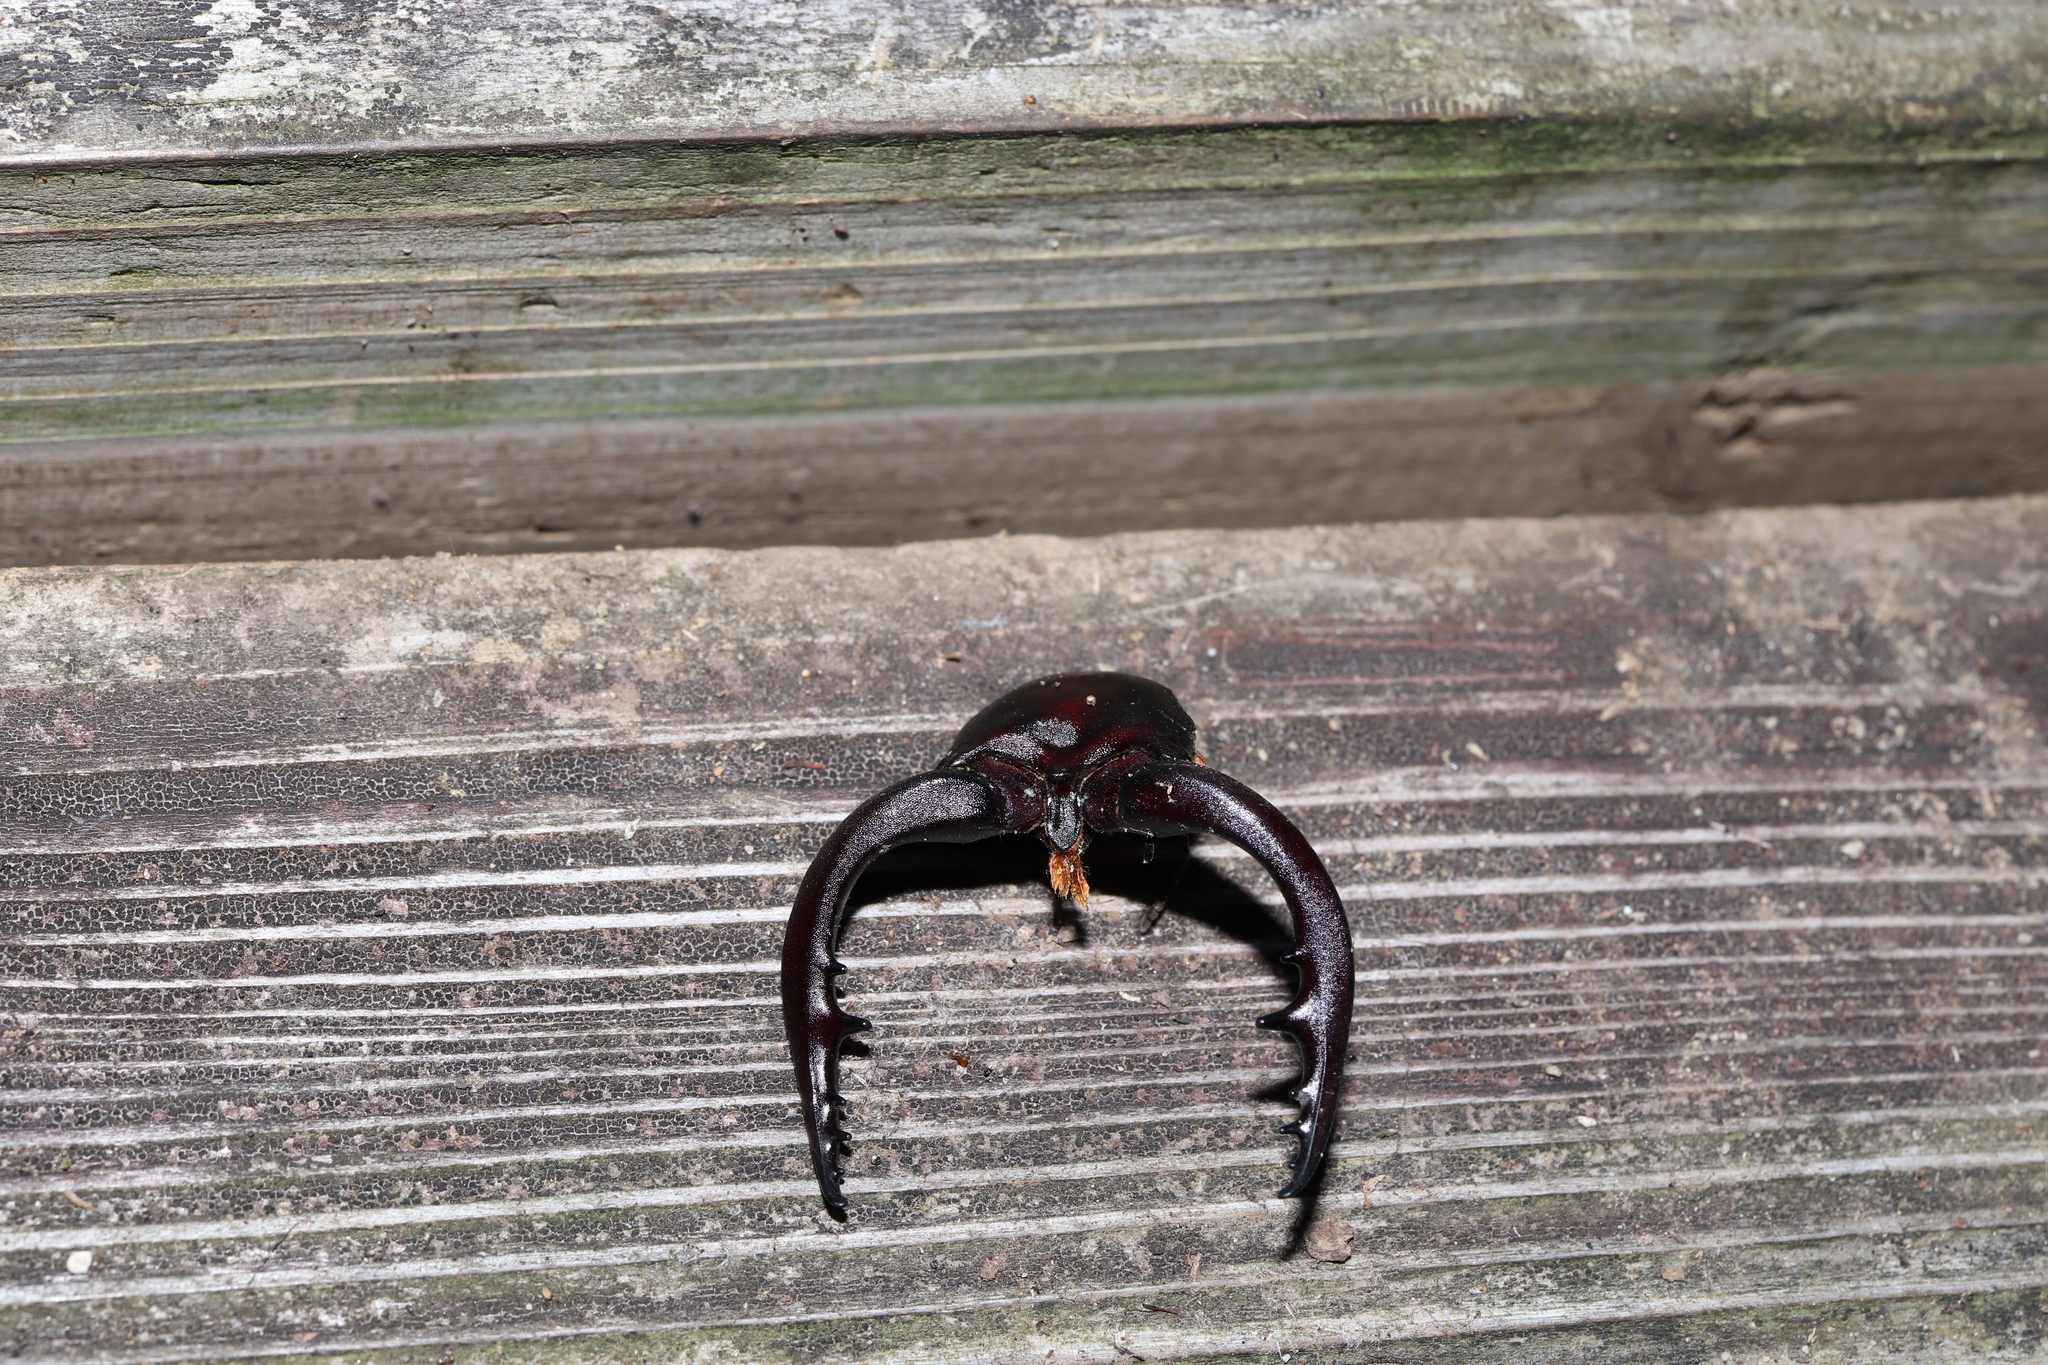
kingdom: Animalia
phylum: Arthropoda
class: Insecta
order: Coleoptera
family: Lucanidae
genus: Prosopocoilus
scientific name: Prosopocoilus inclinatus
